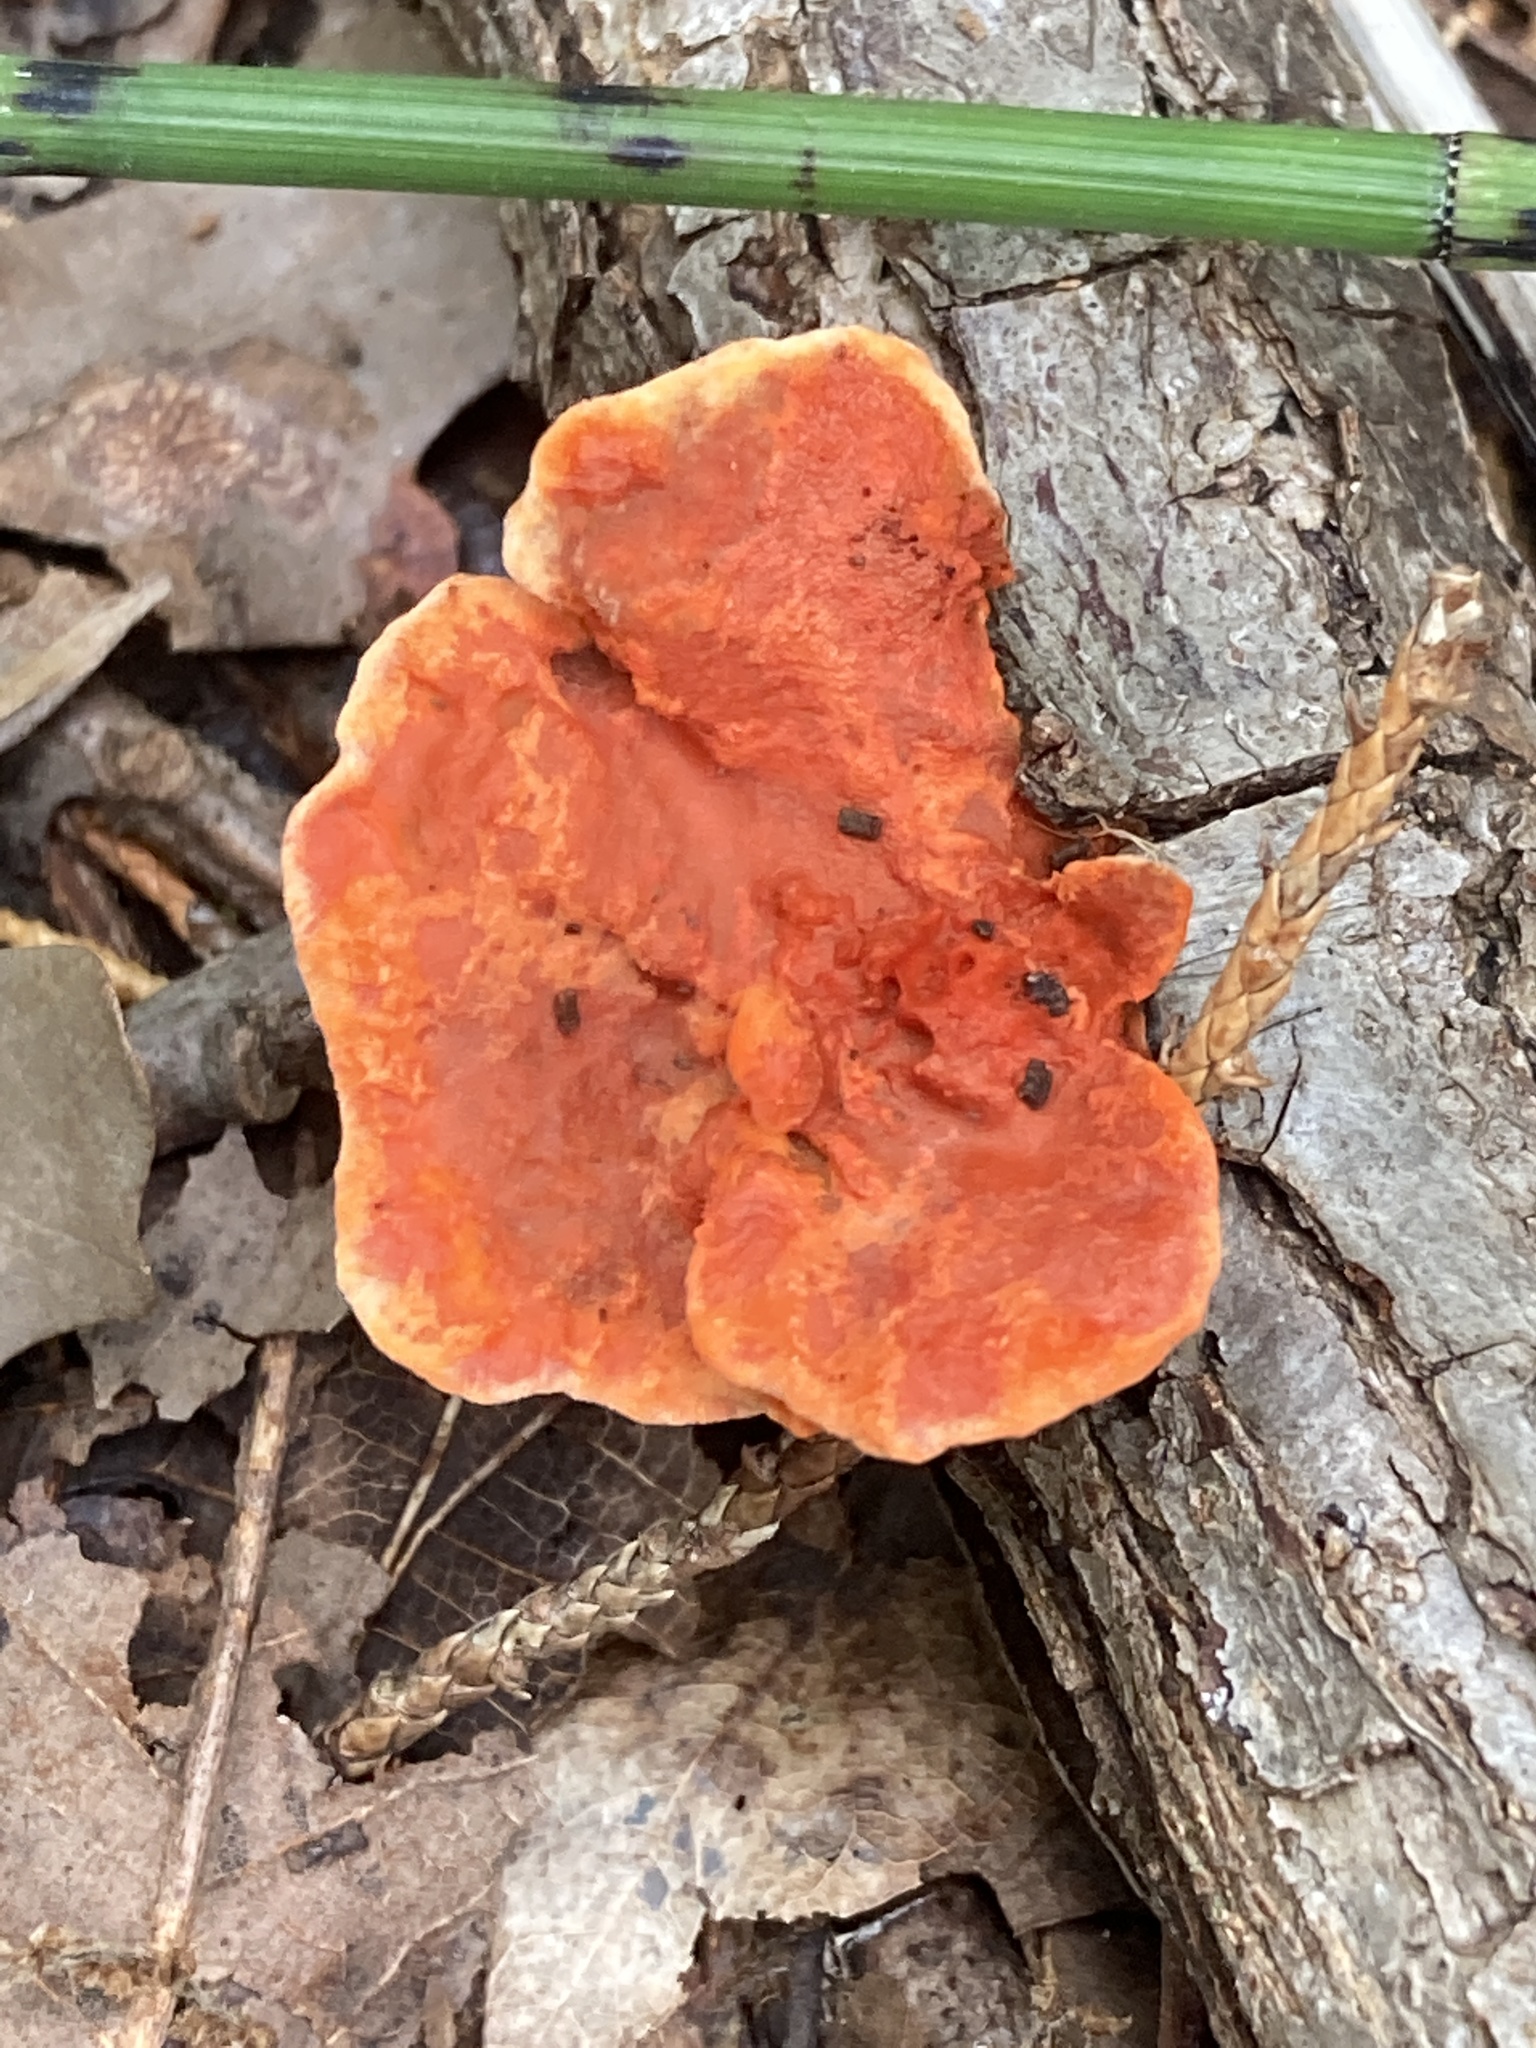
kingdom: Fungi
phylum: Basidiomycota
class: Agaricomycetes
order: Polyporales
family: Polyporaceae
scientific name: Polyporaceae
